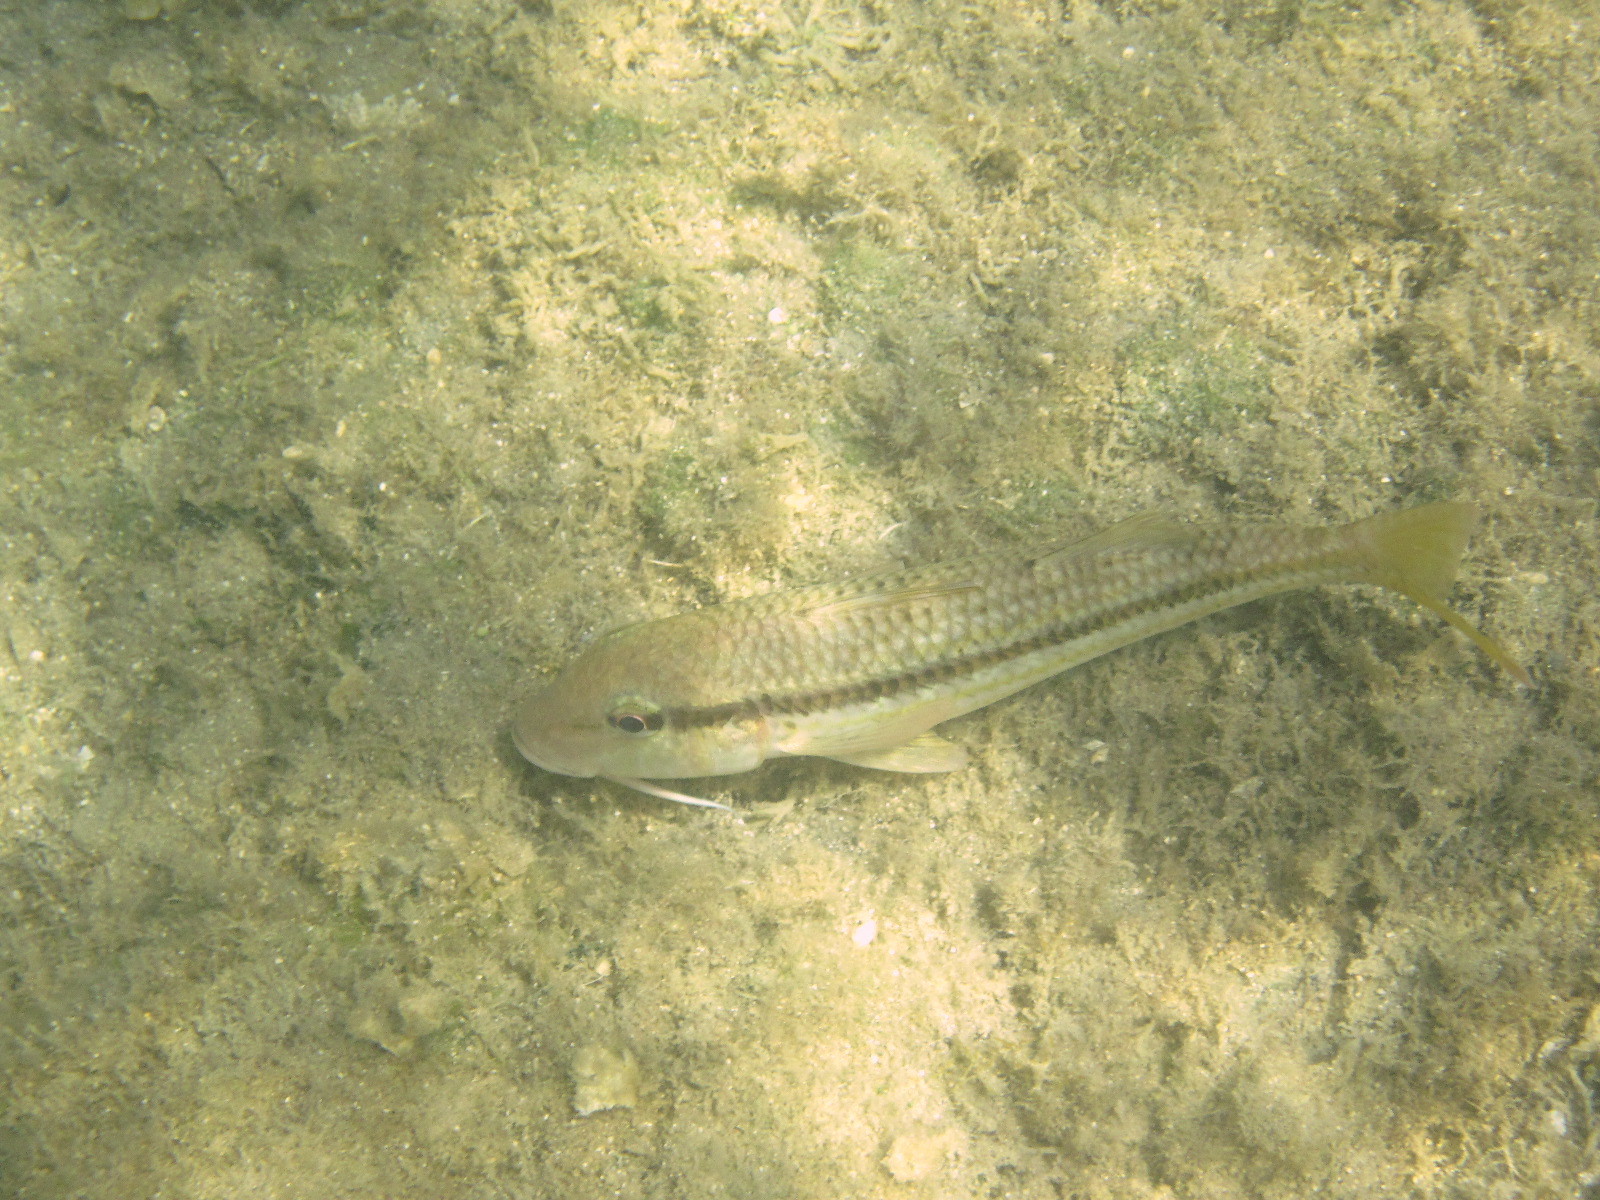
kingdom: Animalia
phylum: Chordata
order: Perciformes
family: Mullidae
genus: Mullus
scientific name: Mullus barbatus
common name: Blunt-snouted mullet
